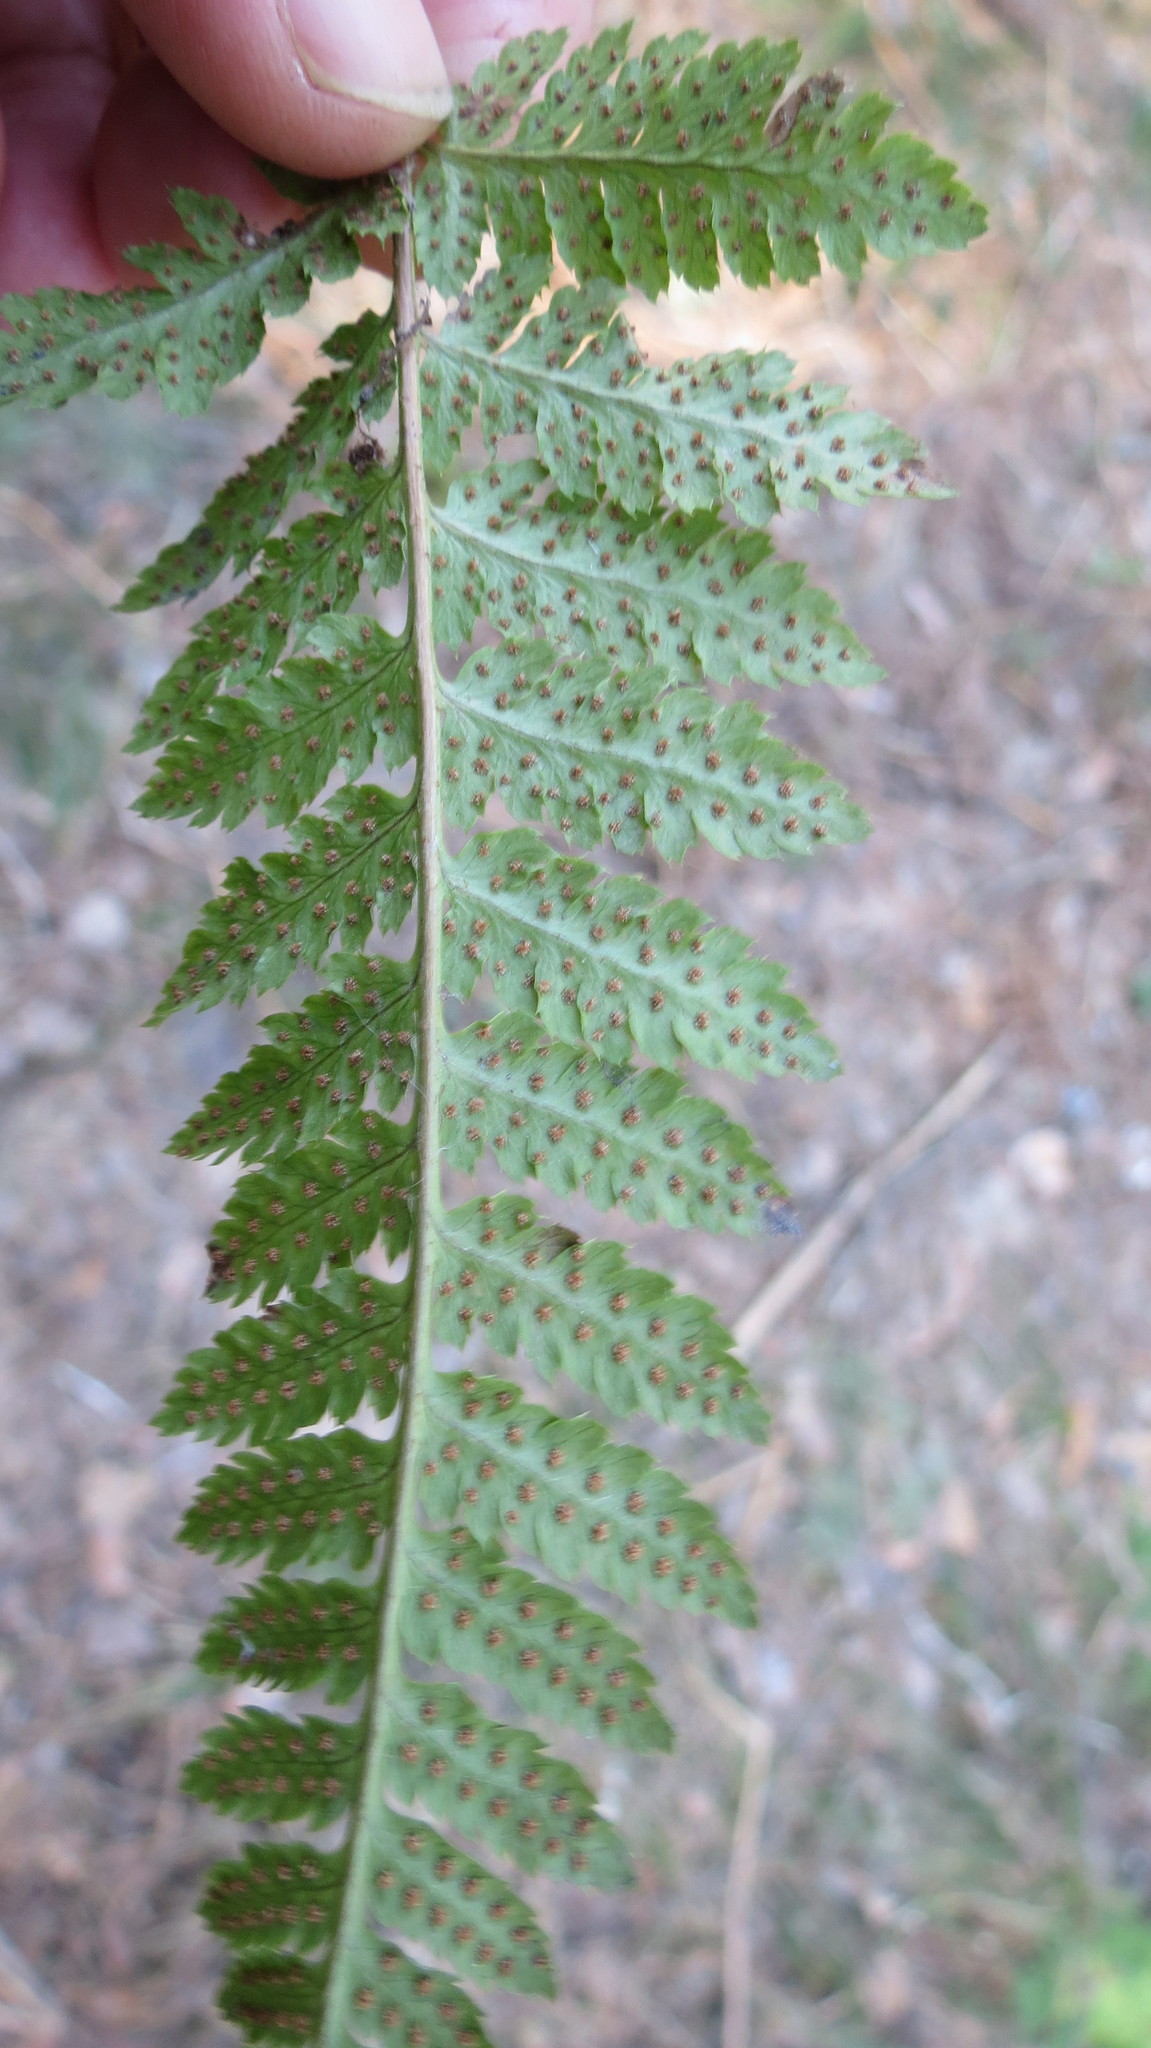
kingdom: Plantae
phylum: Tracheophyta
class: Polypodiopsida
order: Polypodiales
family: Dryopteridaceae
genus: Dryopteris
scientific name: Dryopteris carthusiana
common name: Narrow buckler-fern
